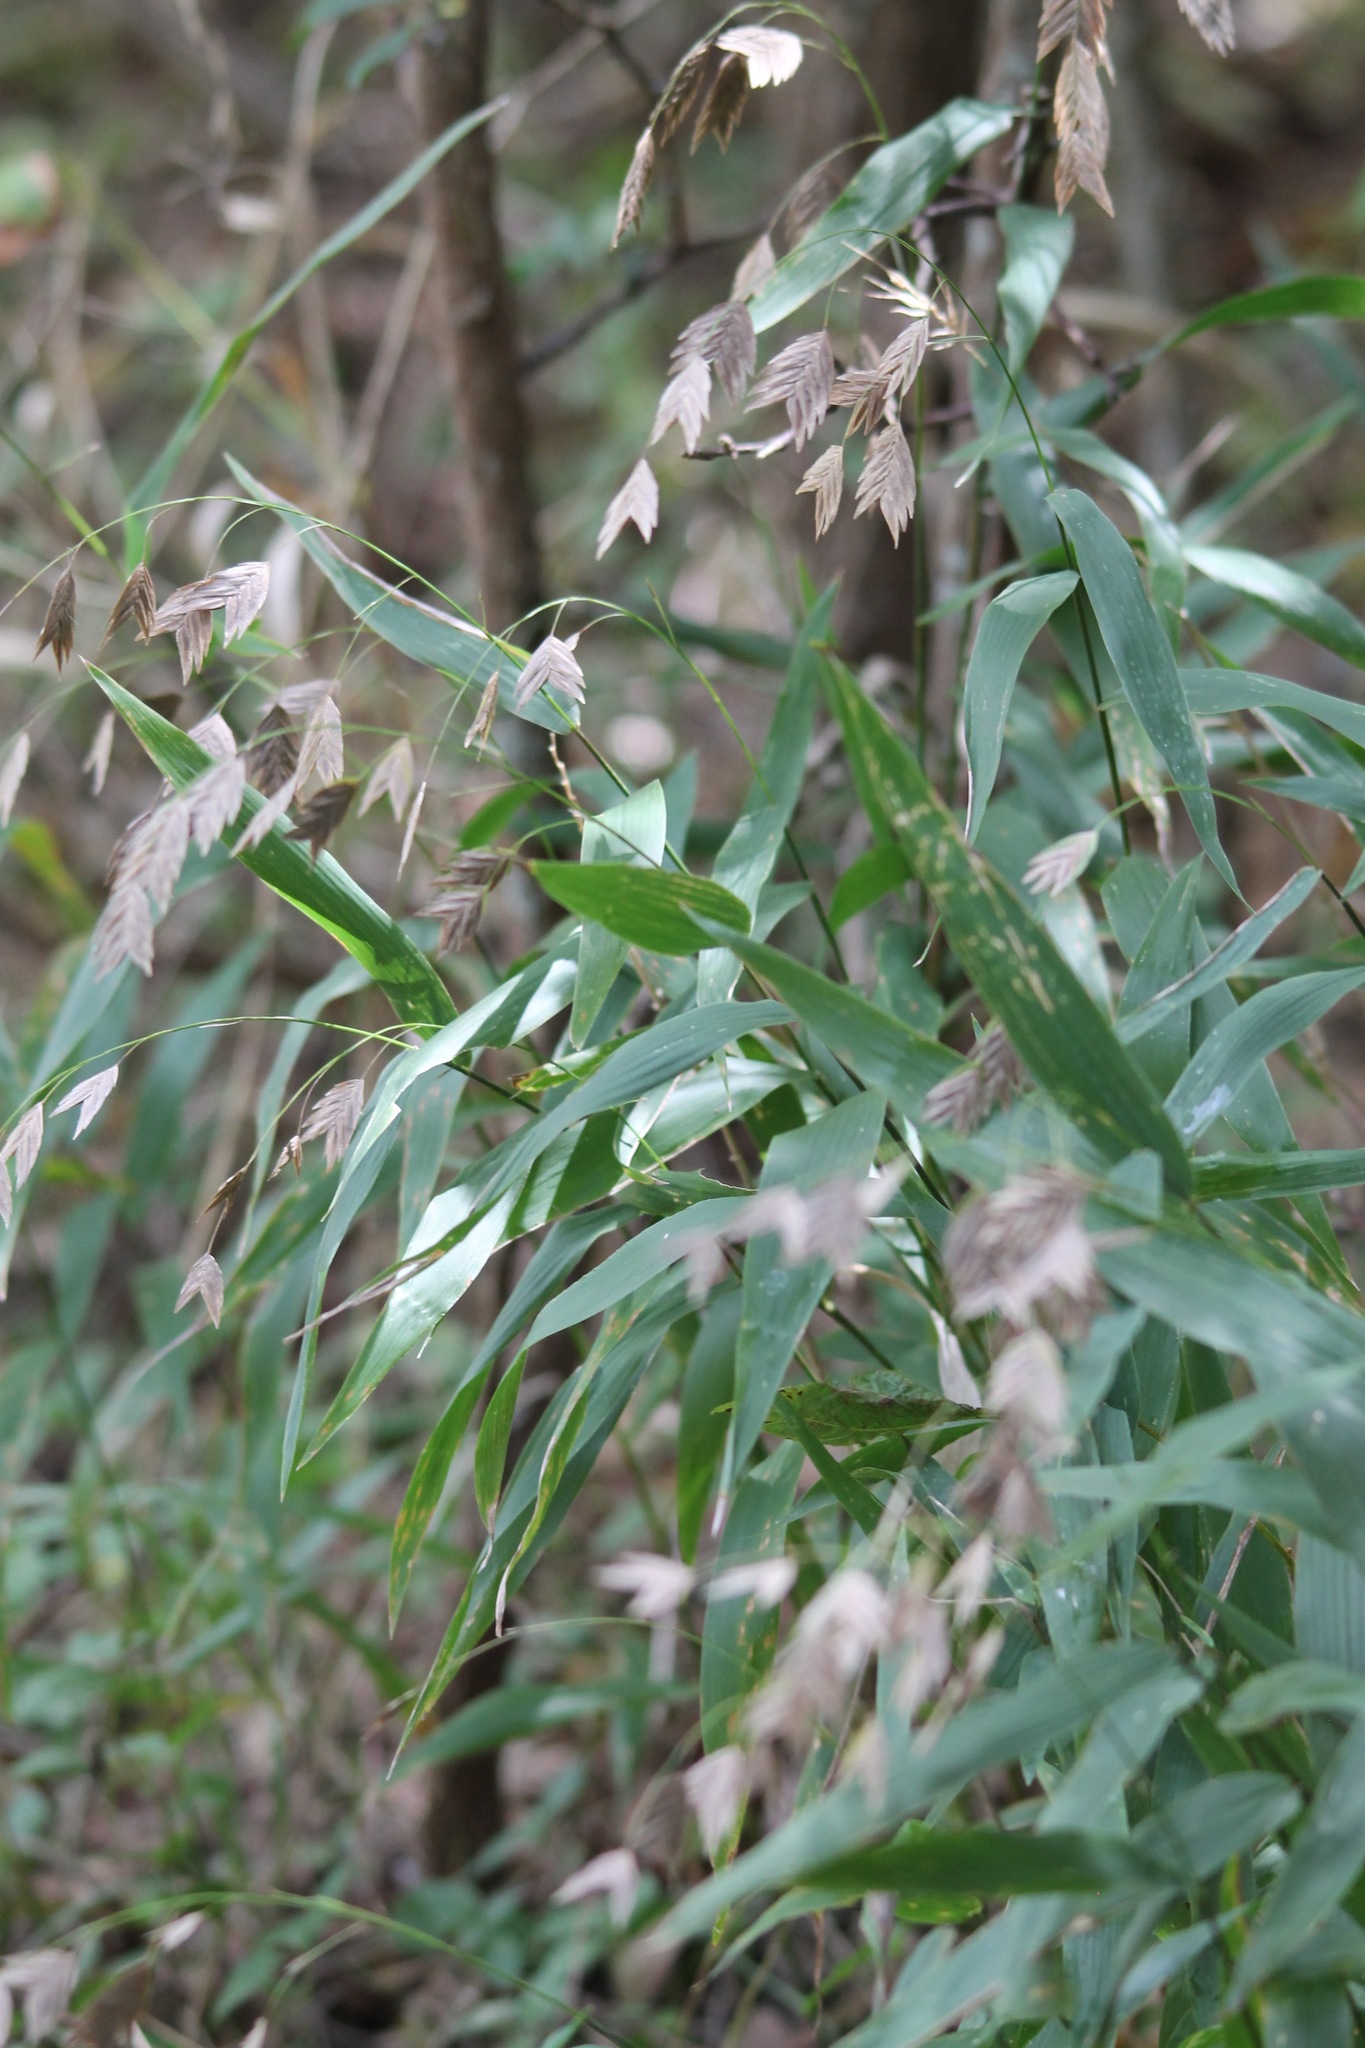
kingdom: Plantae
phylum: Tracheophyta
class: Liliopsida
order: Poales
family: Poaceae
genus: Chasmanthium
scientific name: Chasmanthium latifolium
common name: Broad-leaved chasmanthium
